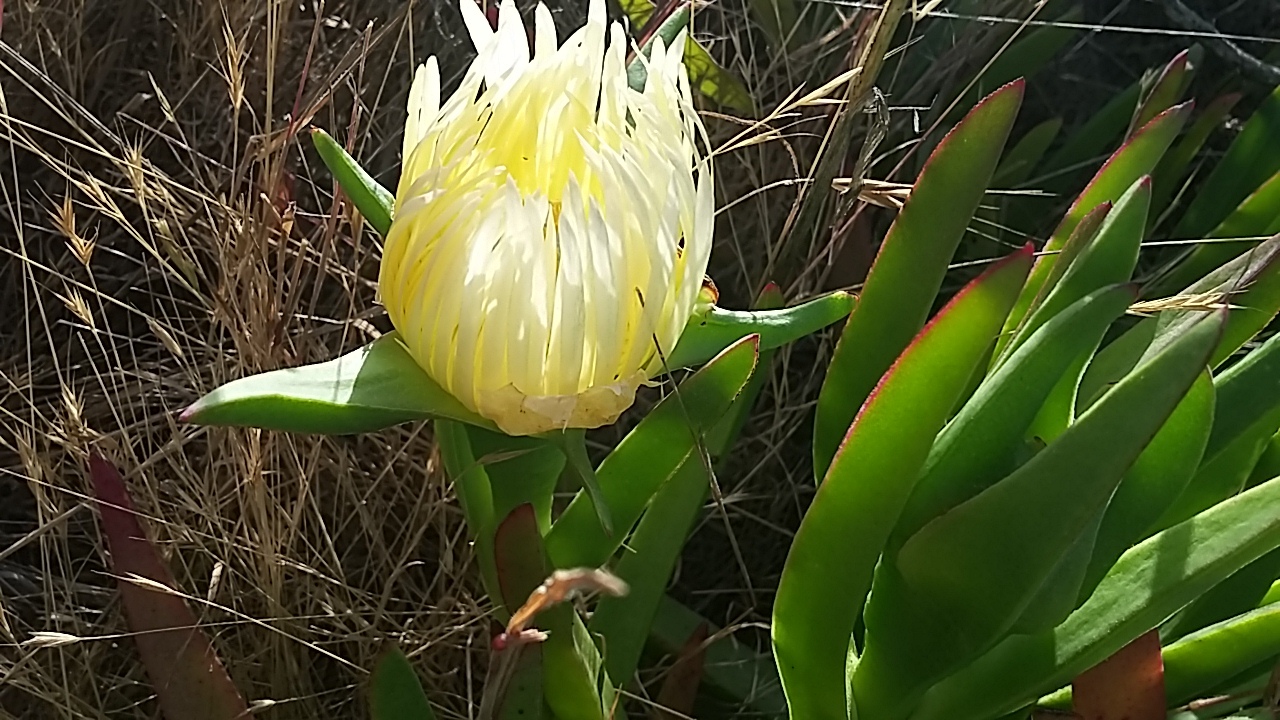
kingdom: Plantae
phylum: Tracheophyta
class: Magnoliopsida
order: Caryophyllales
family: Aizoaceae
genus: Carpobrotus
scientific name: Carpobrotus edulis
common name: Hottentot-fig
